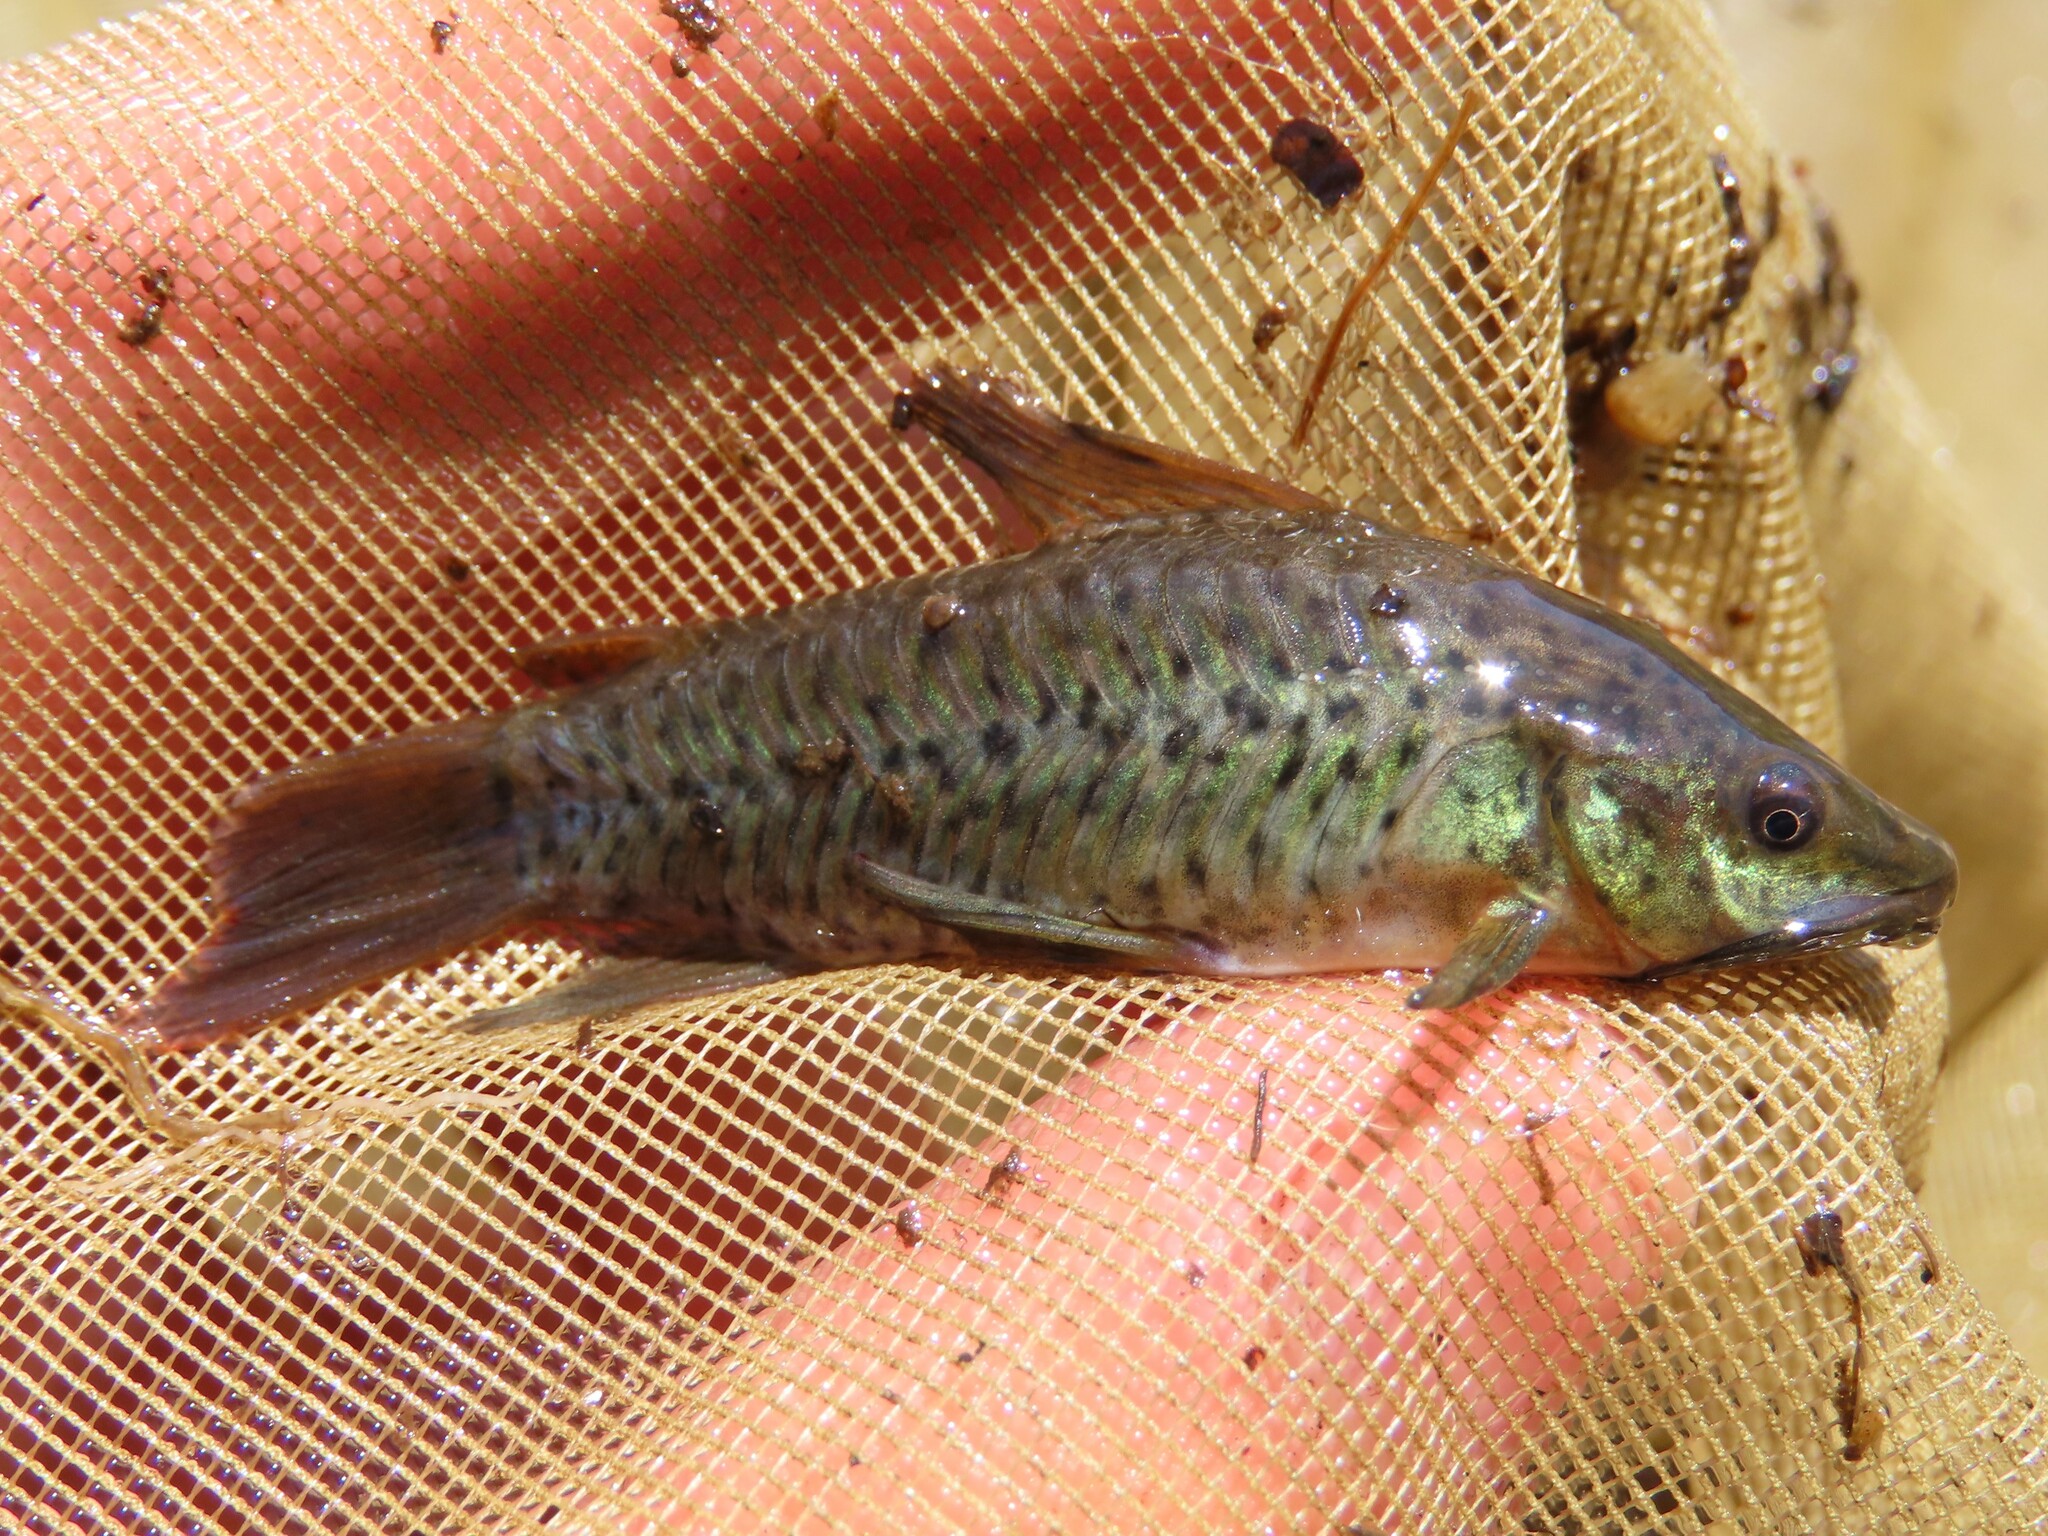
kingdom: Animalia
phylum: Chordata
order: Siluriformes
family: Callichthyidae
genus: Hoplosternum
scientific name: Hoplosternum littorale
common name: Brown hoplo
